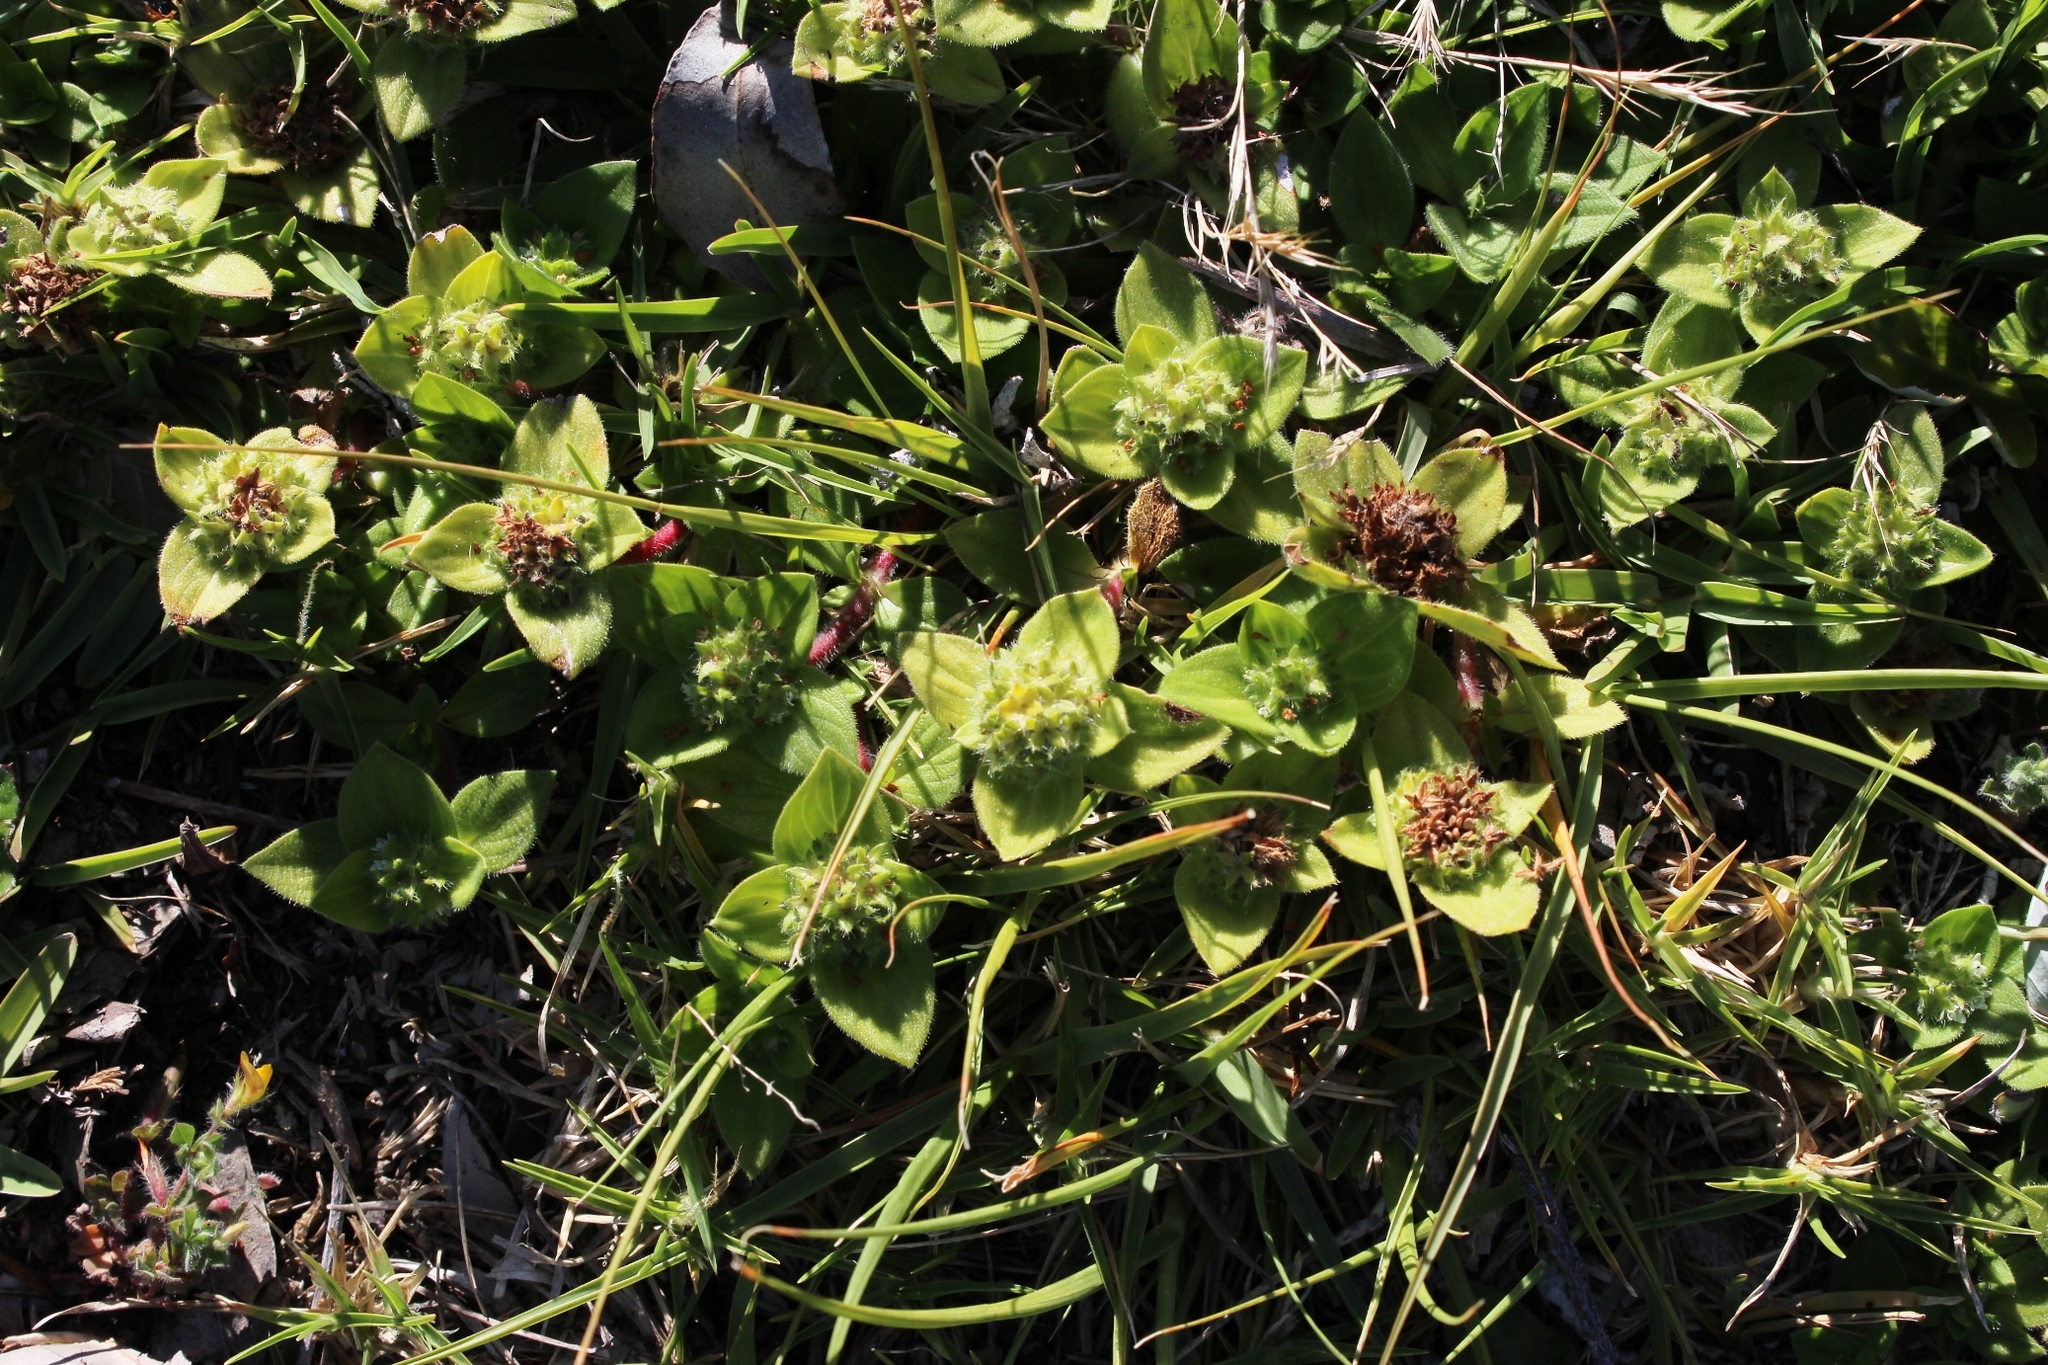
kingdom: Plantae
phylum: Tracheophyta
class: Magnoliopsida
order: Gentianales
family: Rubiaceae
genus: Richardia
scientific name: Richardia brasiliensis
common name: Tropical mexican clover
